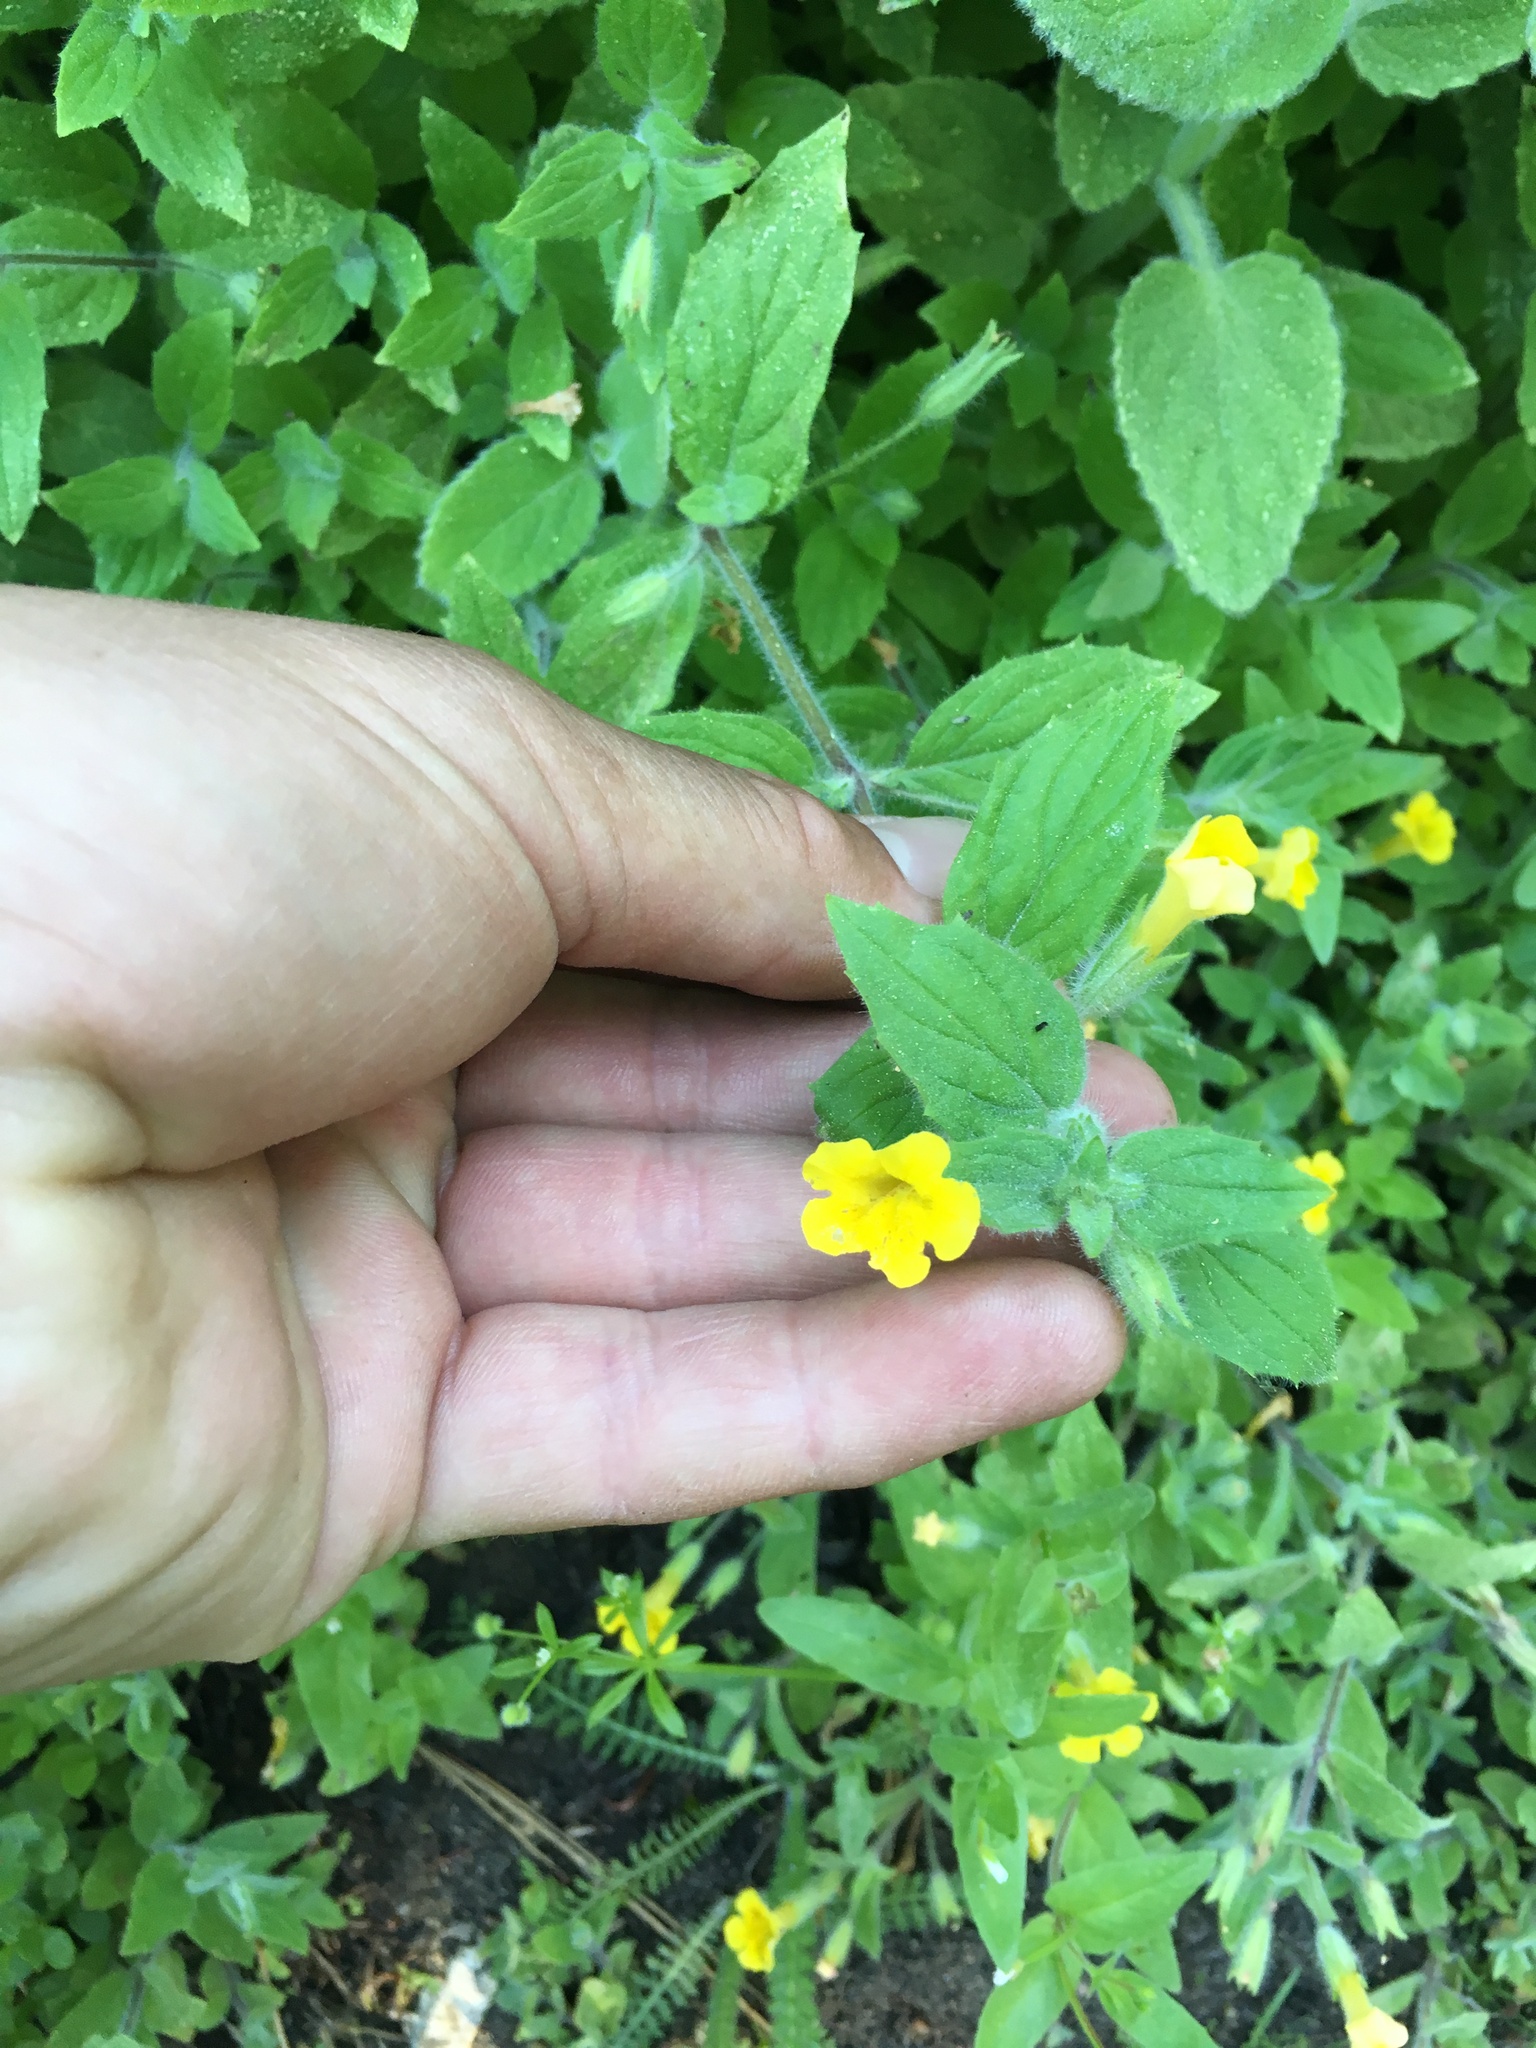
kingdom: Plantae
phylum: Tracheophyta
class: Magnoliopsida
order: Lamiales
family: Phrymaceae
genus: Erythranthe
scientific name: Erythranthe moschata
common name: Muskflower
